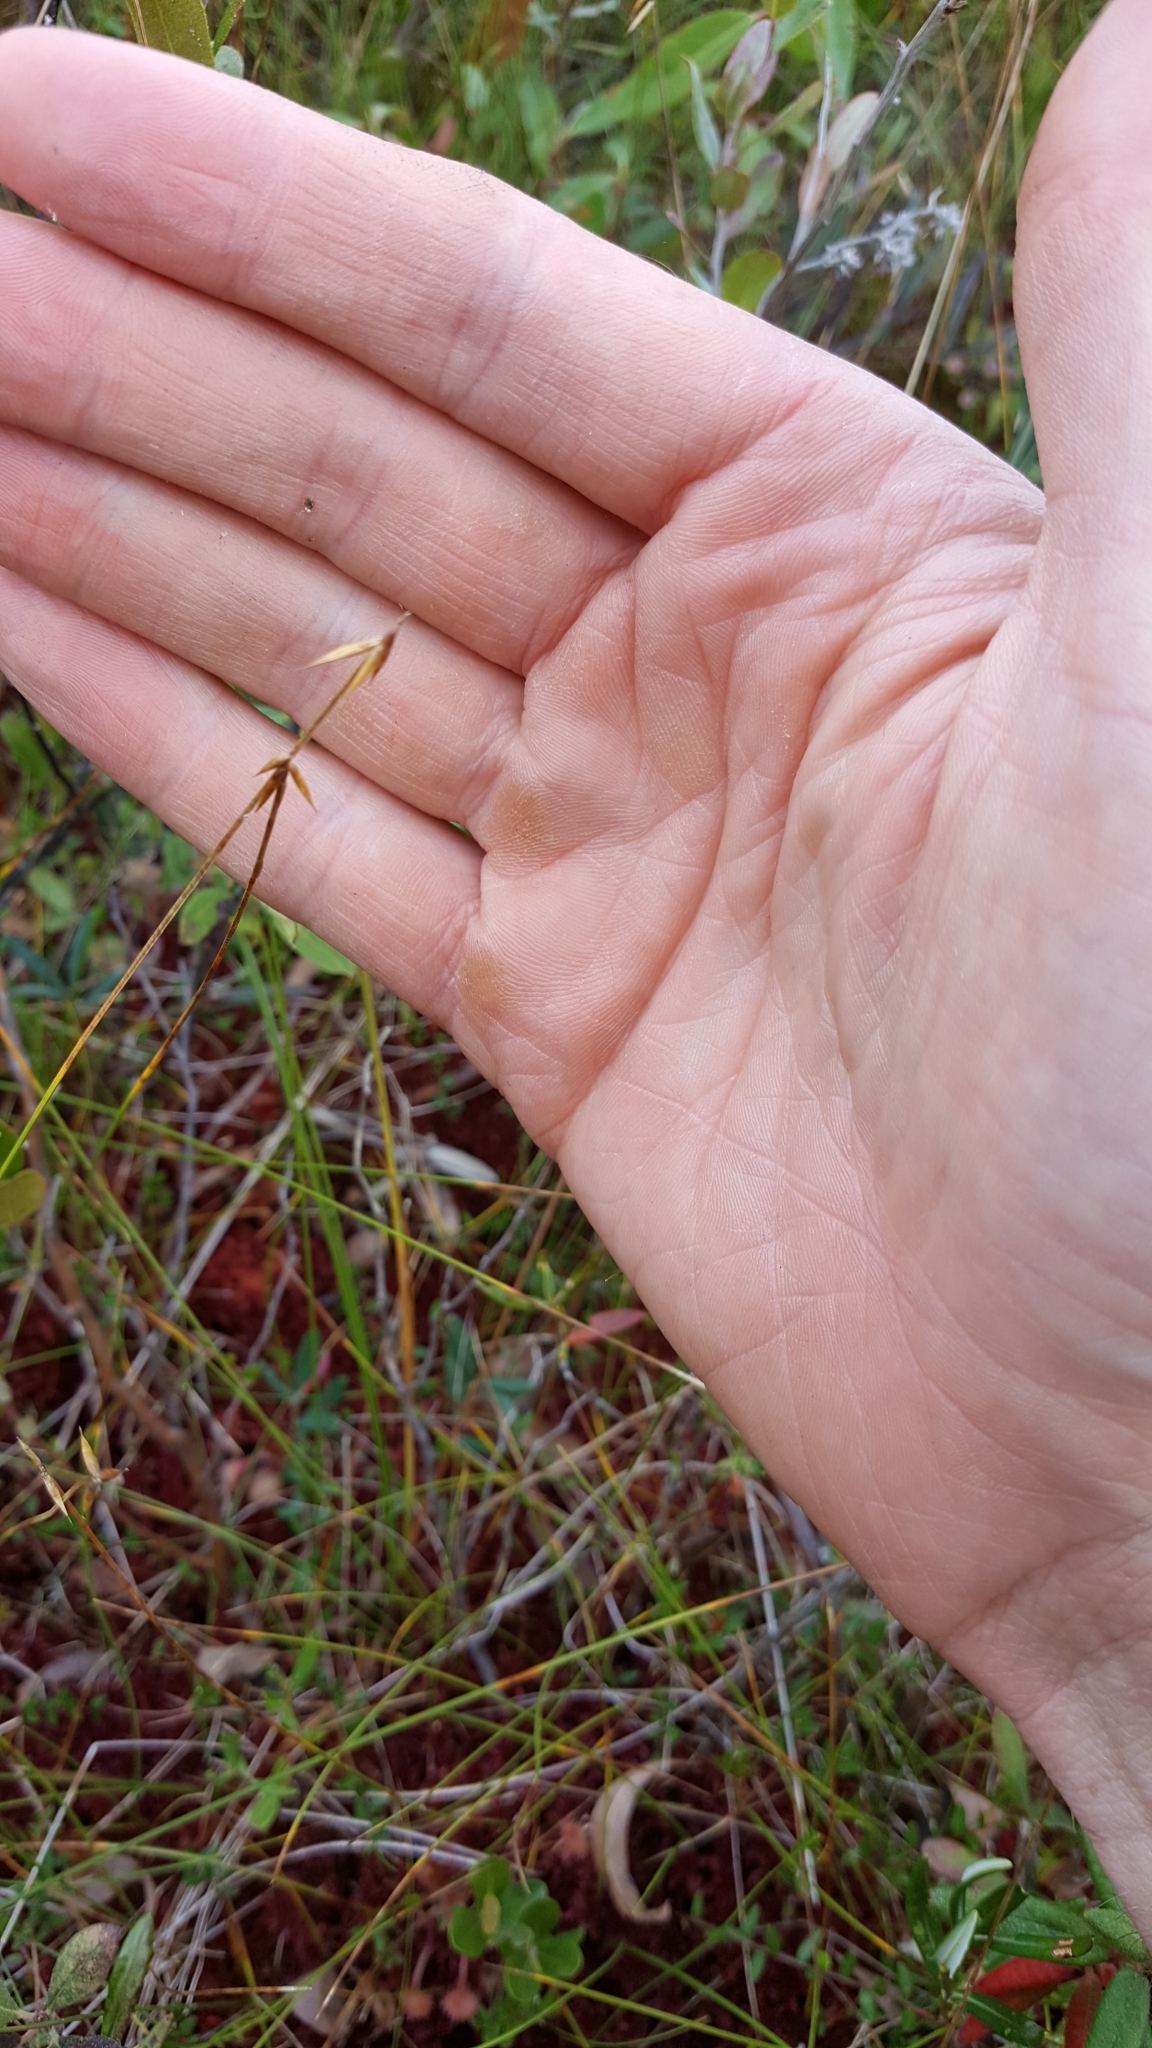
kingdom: Plantae
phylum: Tracheophyta
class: Liliopsida
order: Poales
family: Cyperaceae
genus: Carex
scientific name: Carex pauciflora
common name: Few-flowered sedge
